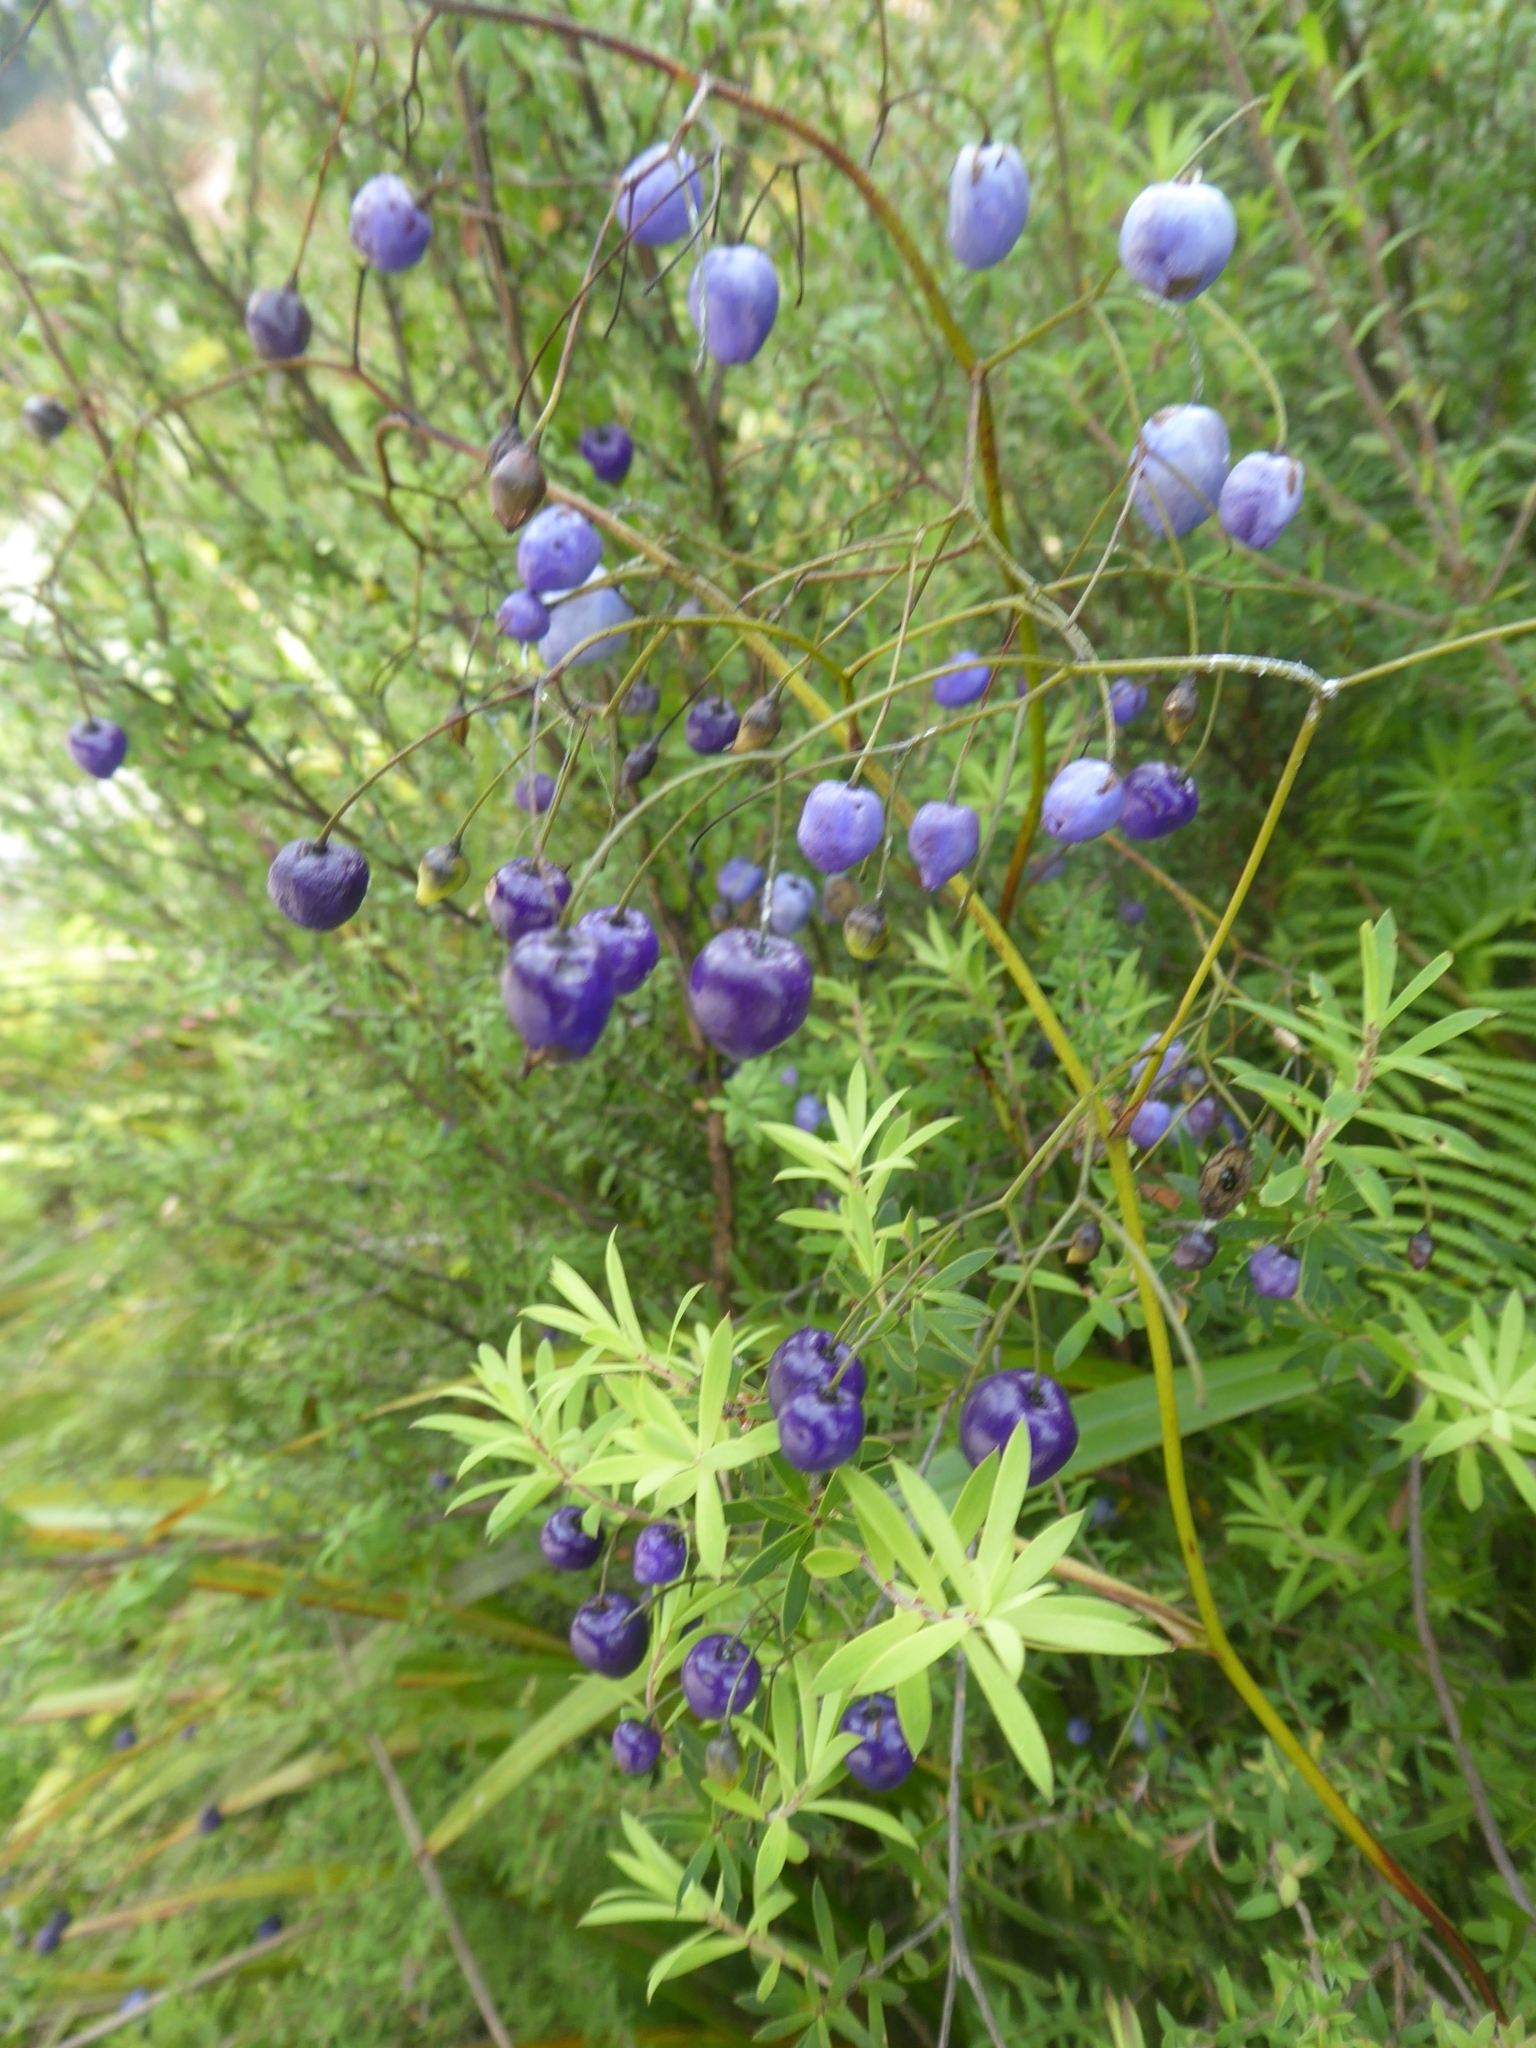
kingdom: Plantae
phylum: Tracheophyta
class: Liliopsida
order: Asparagales
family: Asphodelaceae
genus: Dianella
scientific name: Dianella nigra
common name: New zealand-blueberry
